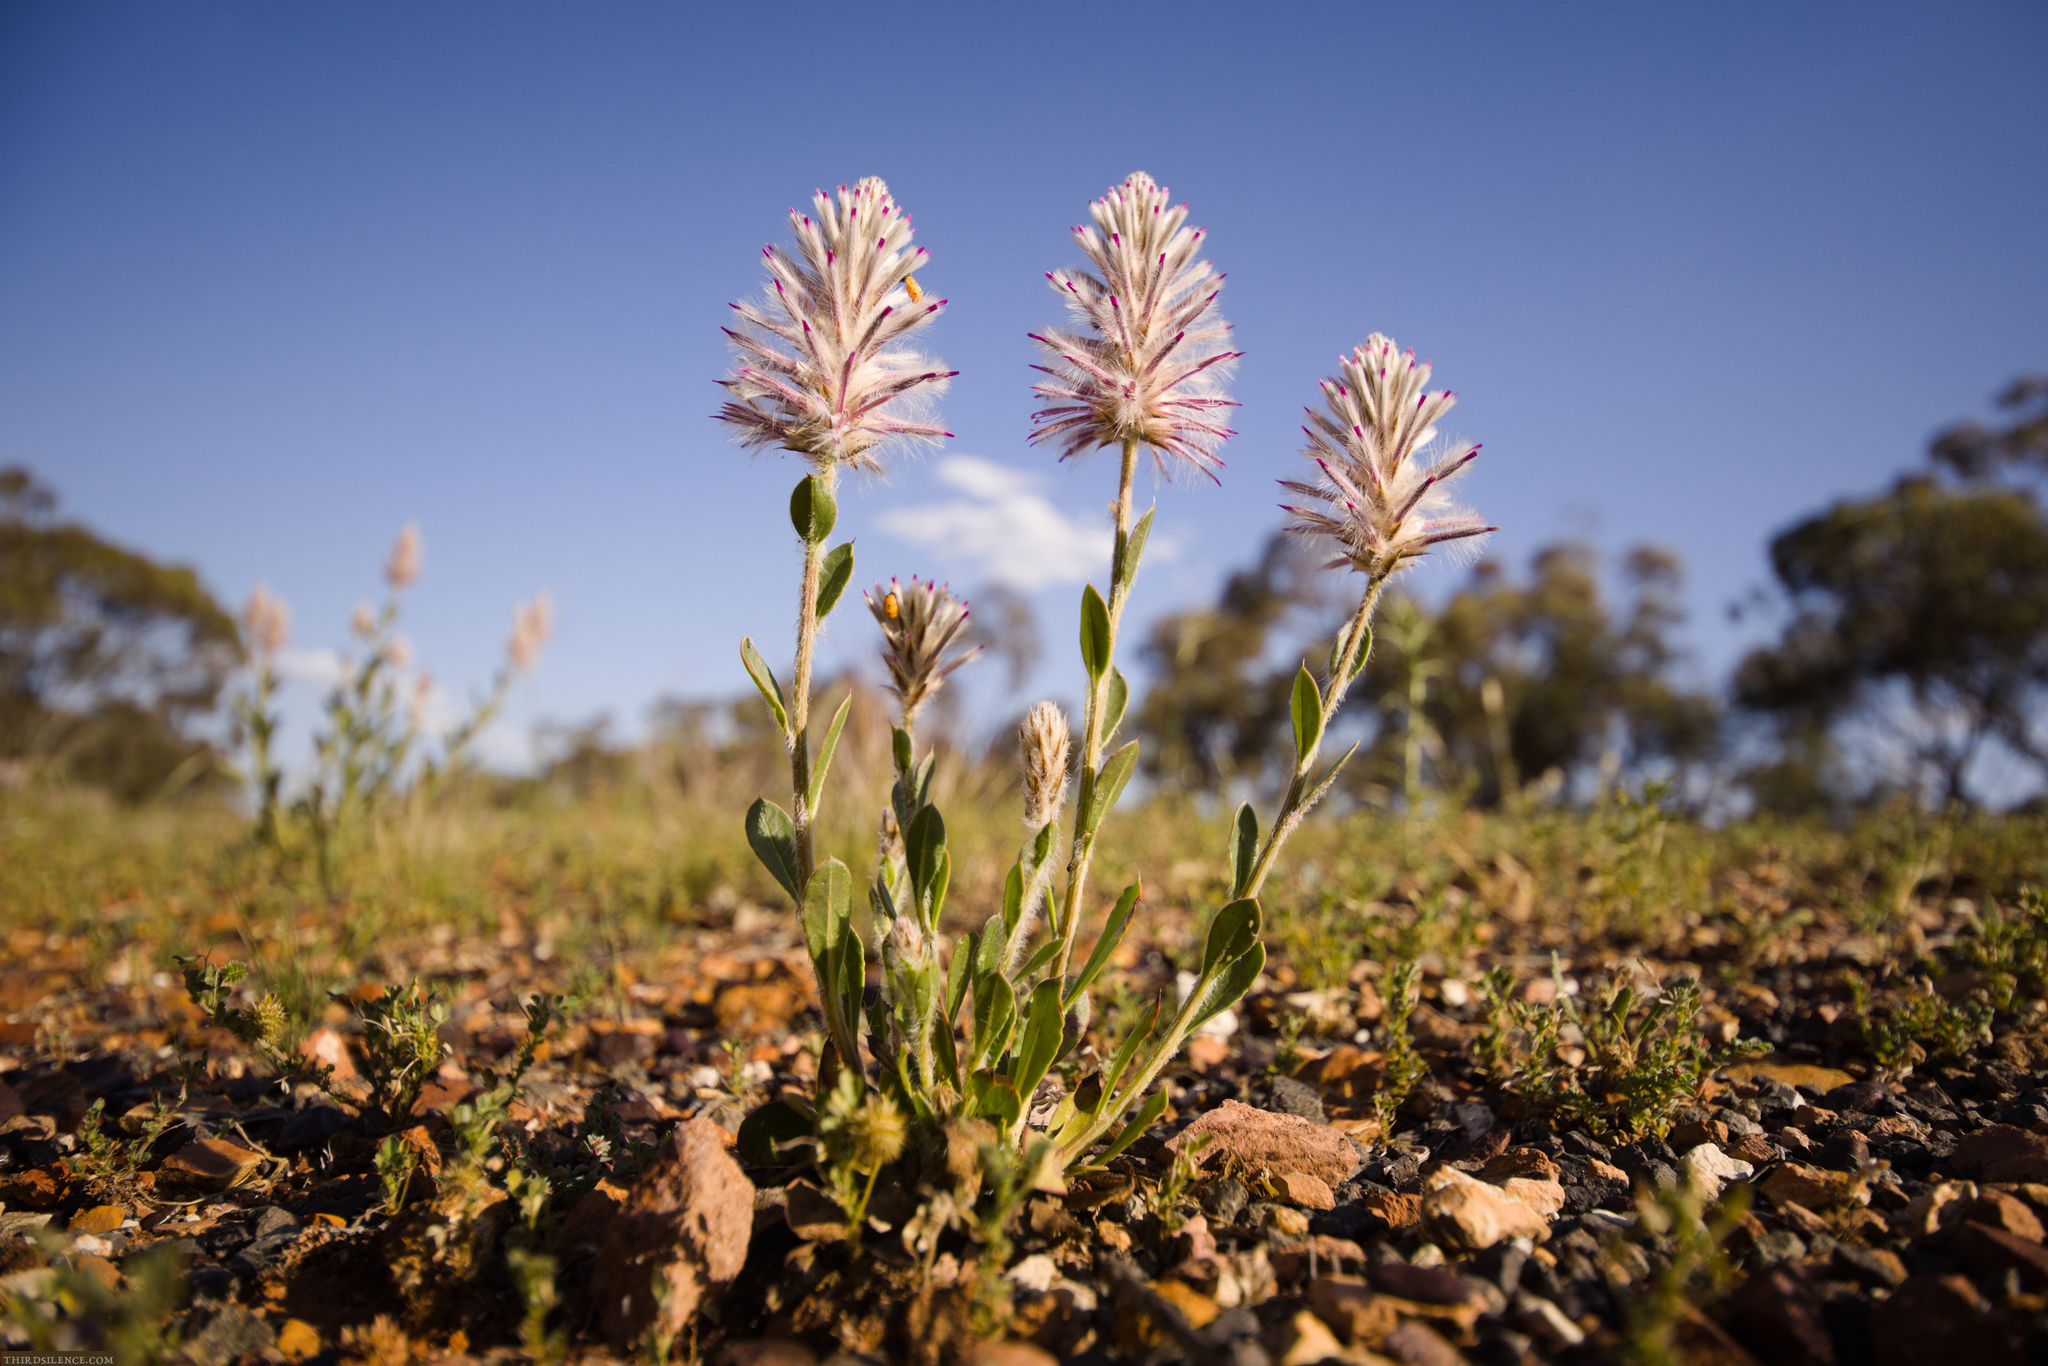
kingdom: Plantae
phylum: Tracheophyta
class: Magnoliopsida
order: Caryophyllales
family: Amaranthaceae
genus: Ptilotus
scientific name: Ptilotus exaltatus
